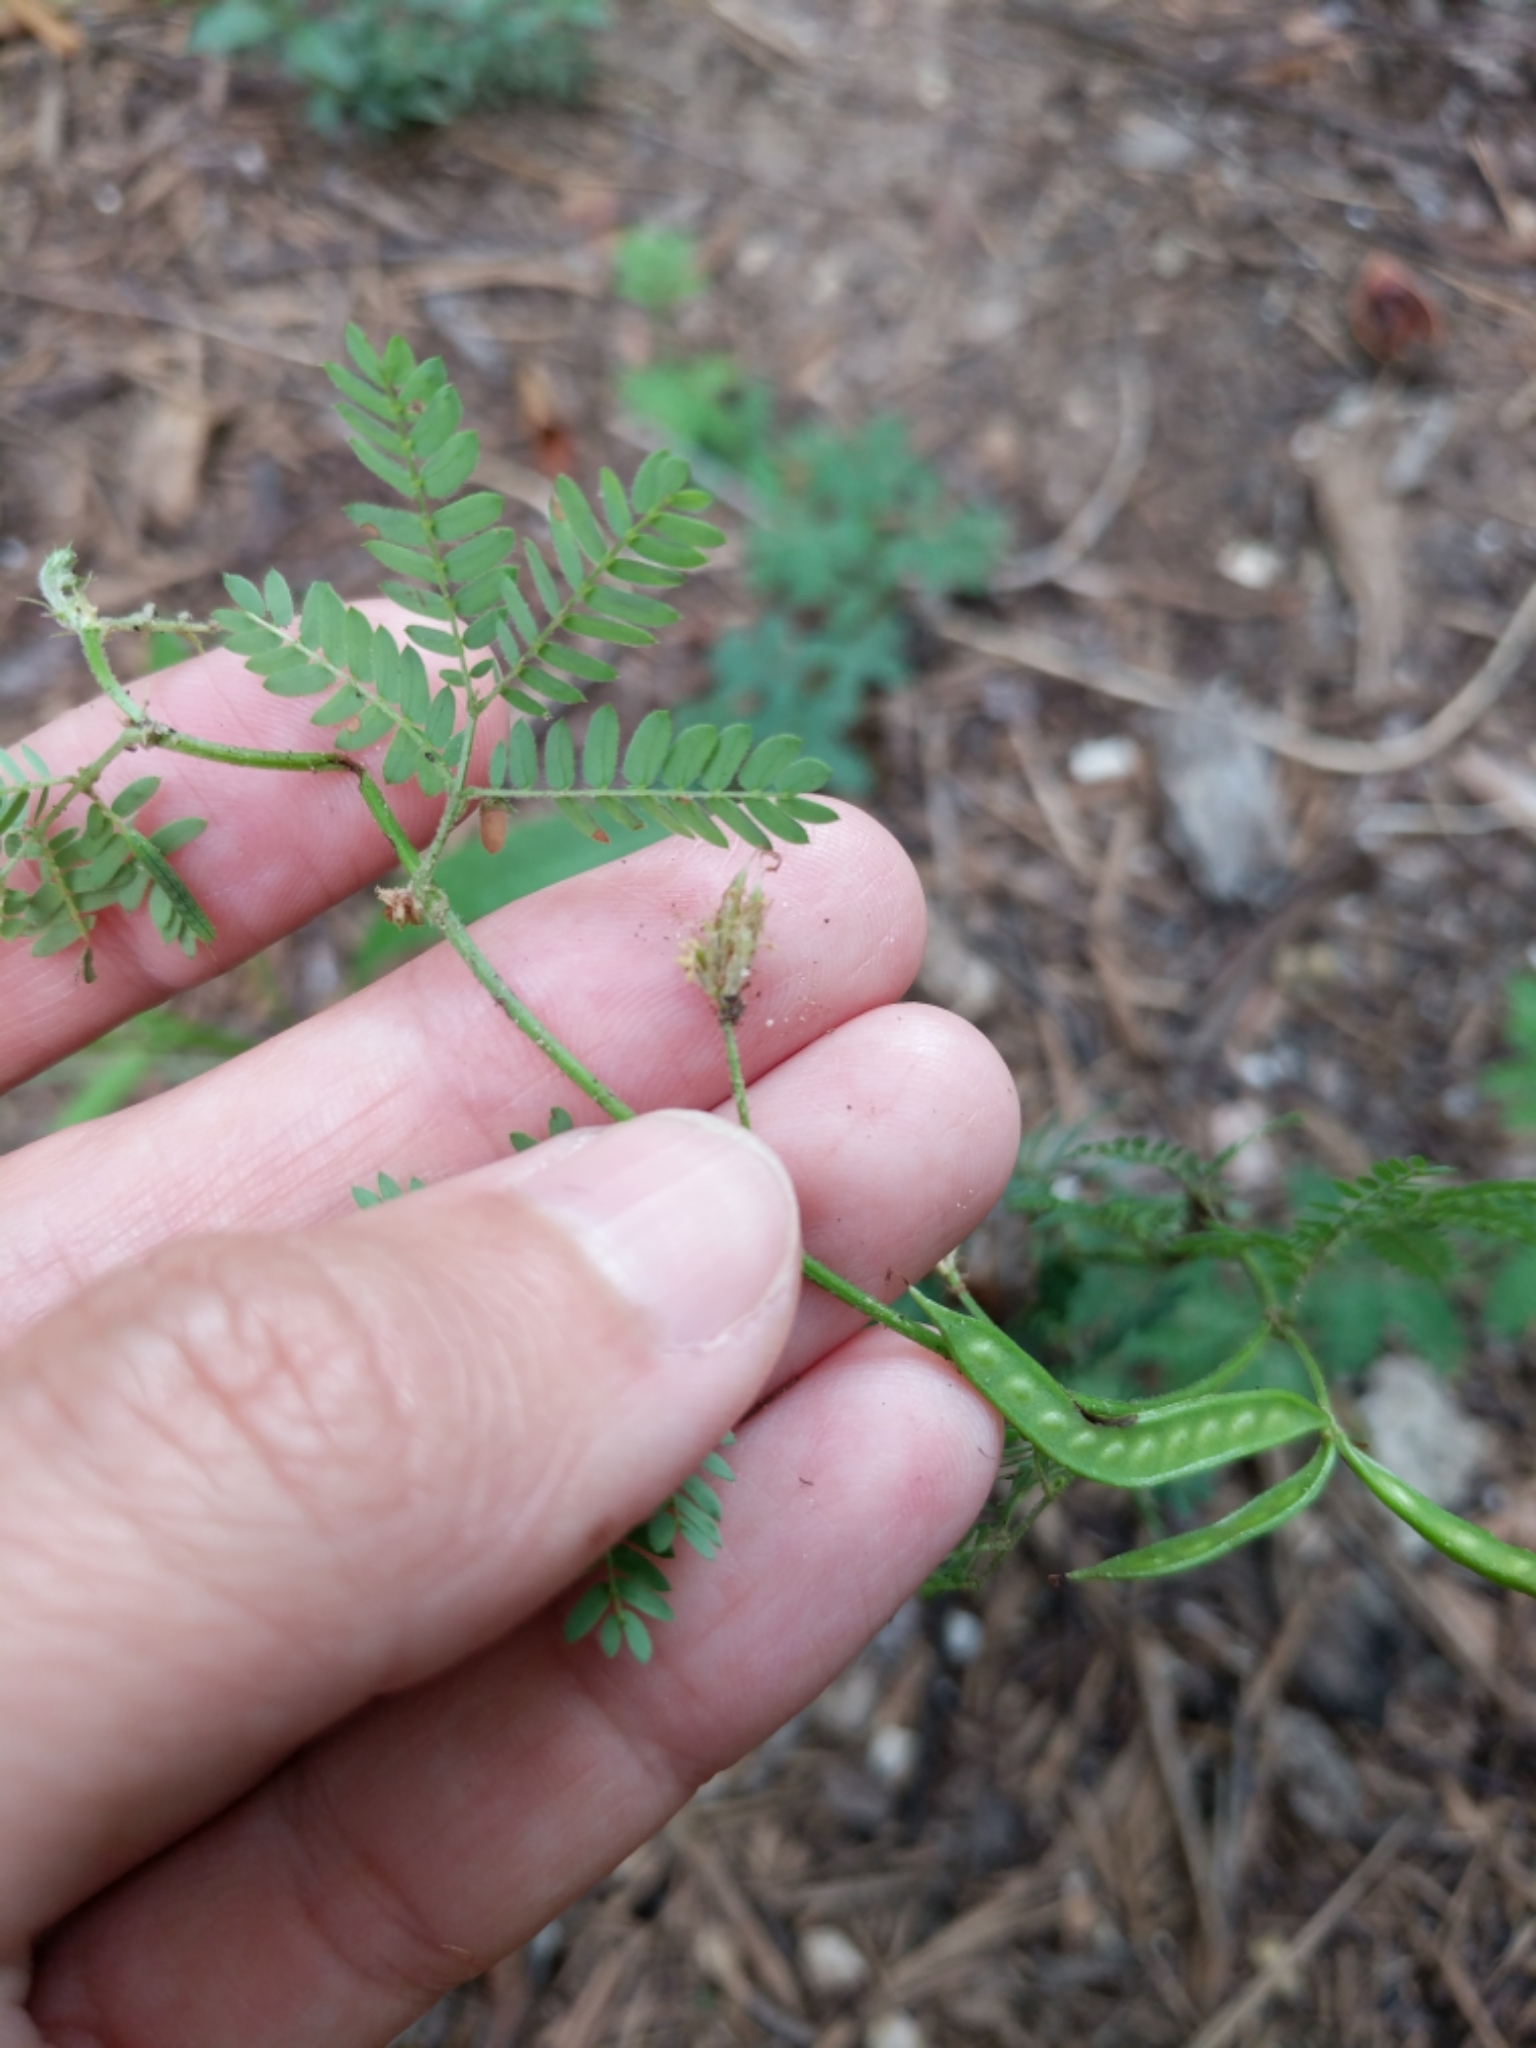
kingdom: Plantae
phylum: Tracheophyta
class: Magnoliopsida
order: Fabales
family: Fabaceae
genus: Desmanthus
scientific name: Desmanthus acuminatus
